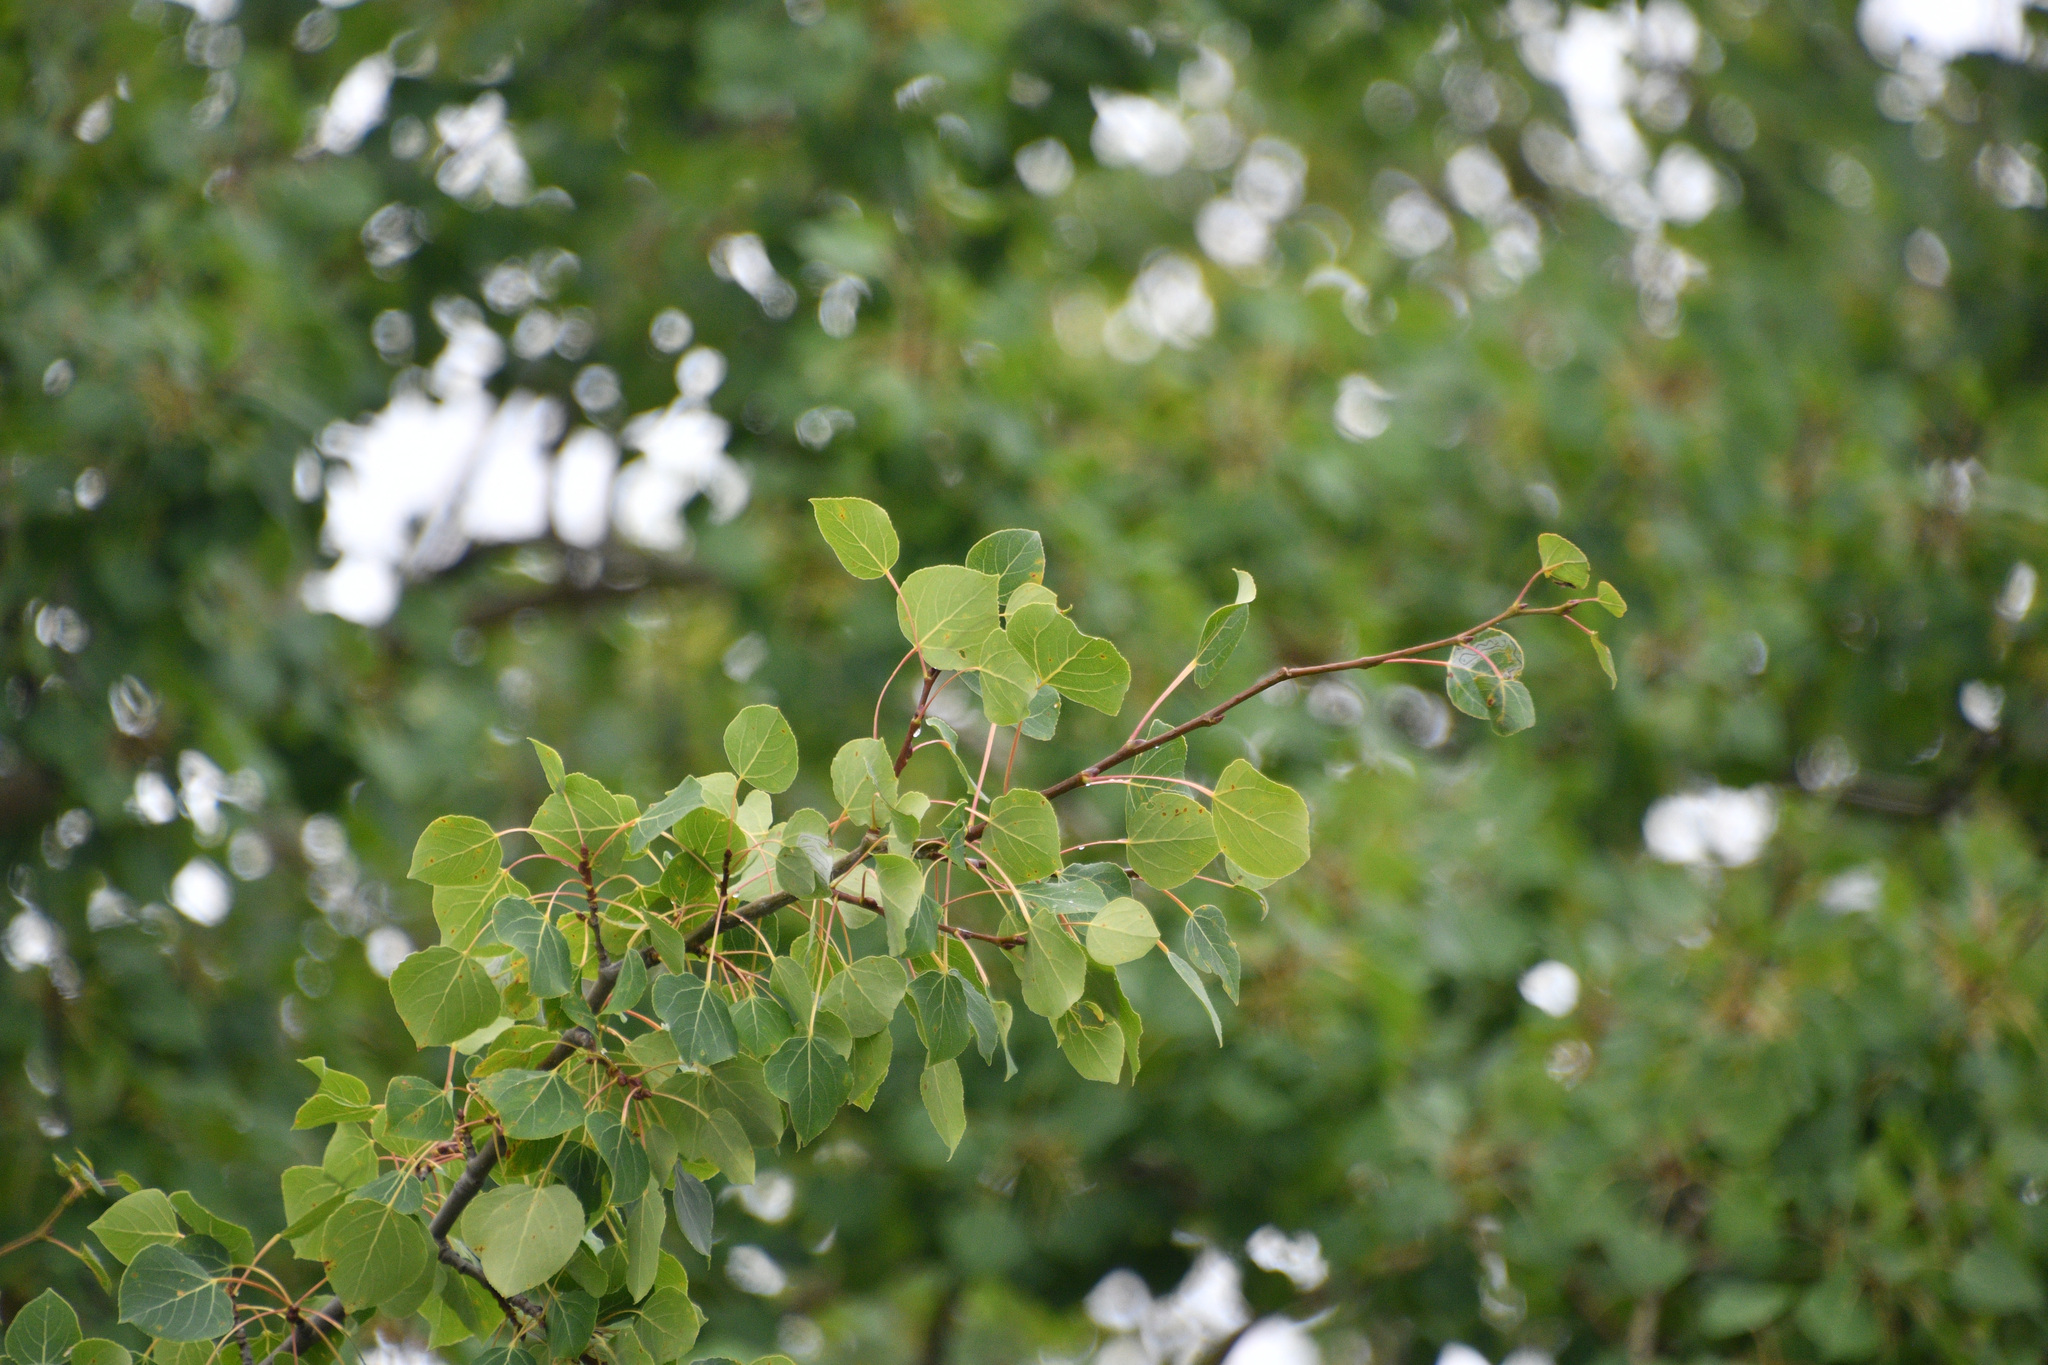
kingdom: Plantae
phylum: Tracheophyta
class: Magnoliopsida
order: Malpighiales
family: Salicaceae
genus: Populus
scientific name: Populus tremuloides
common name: Quaking aspen
